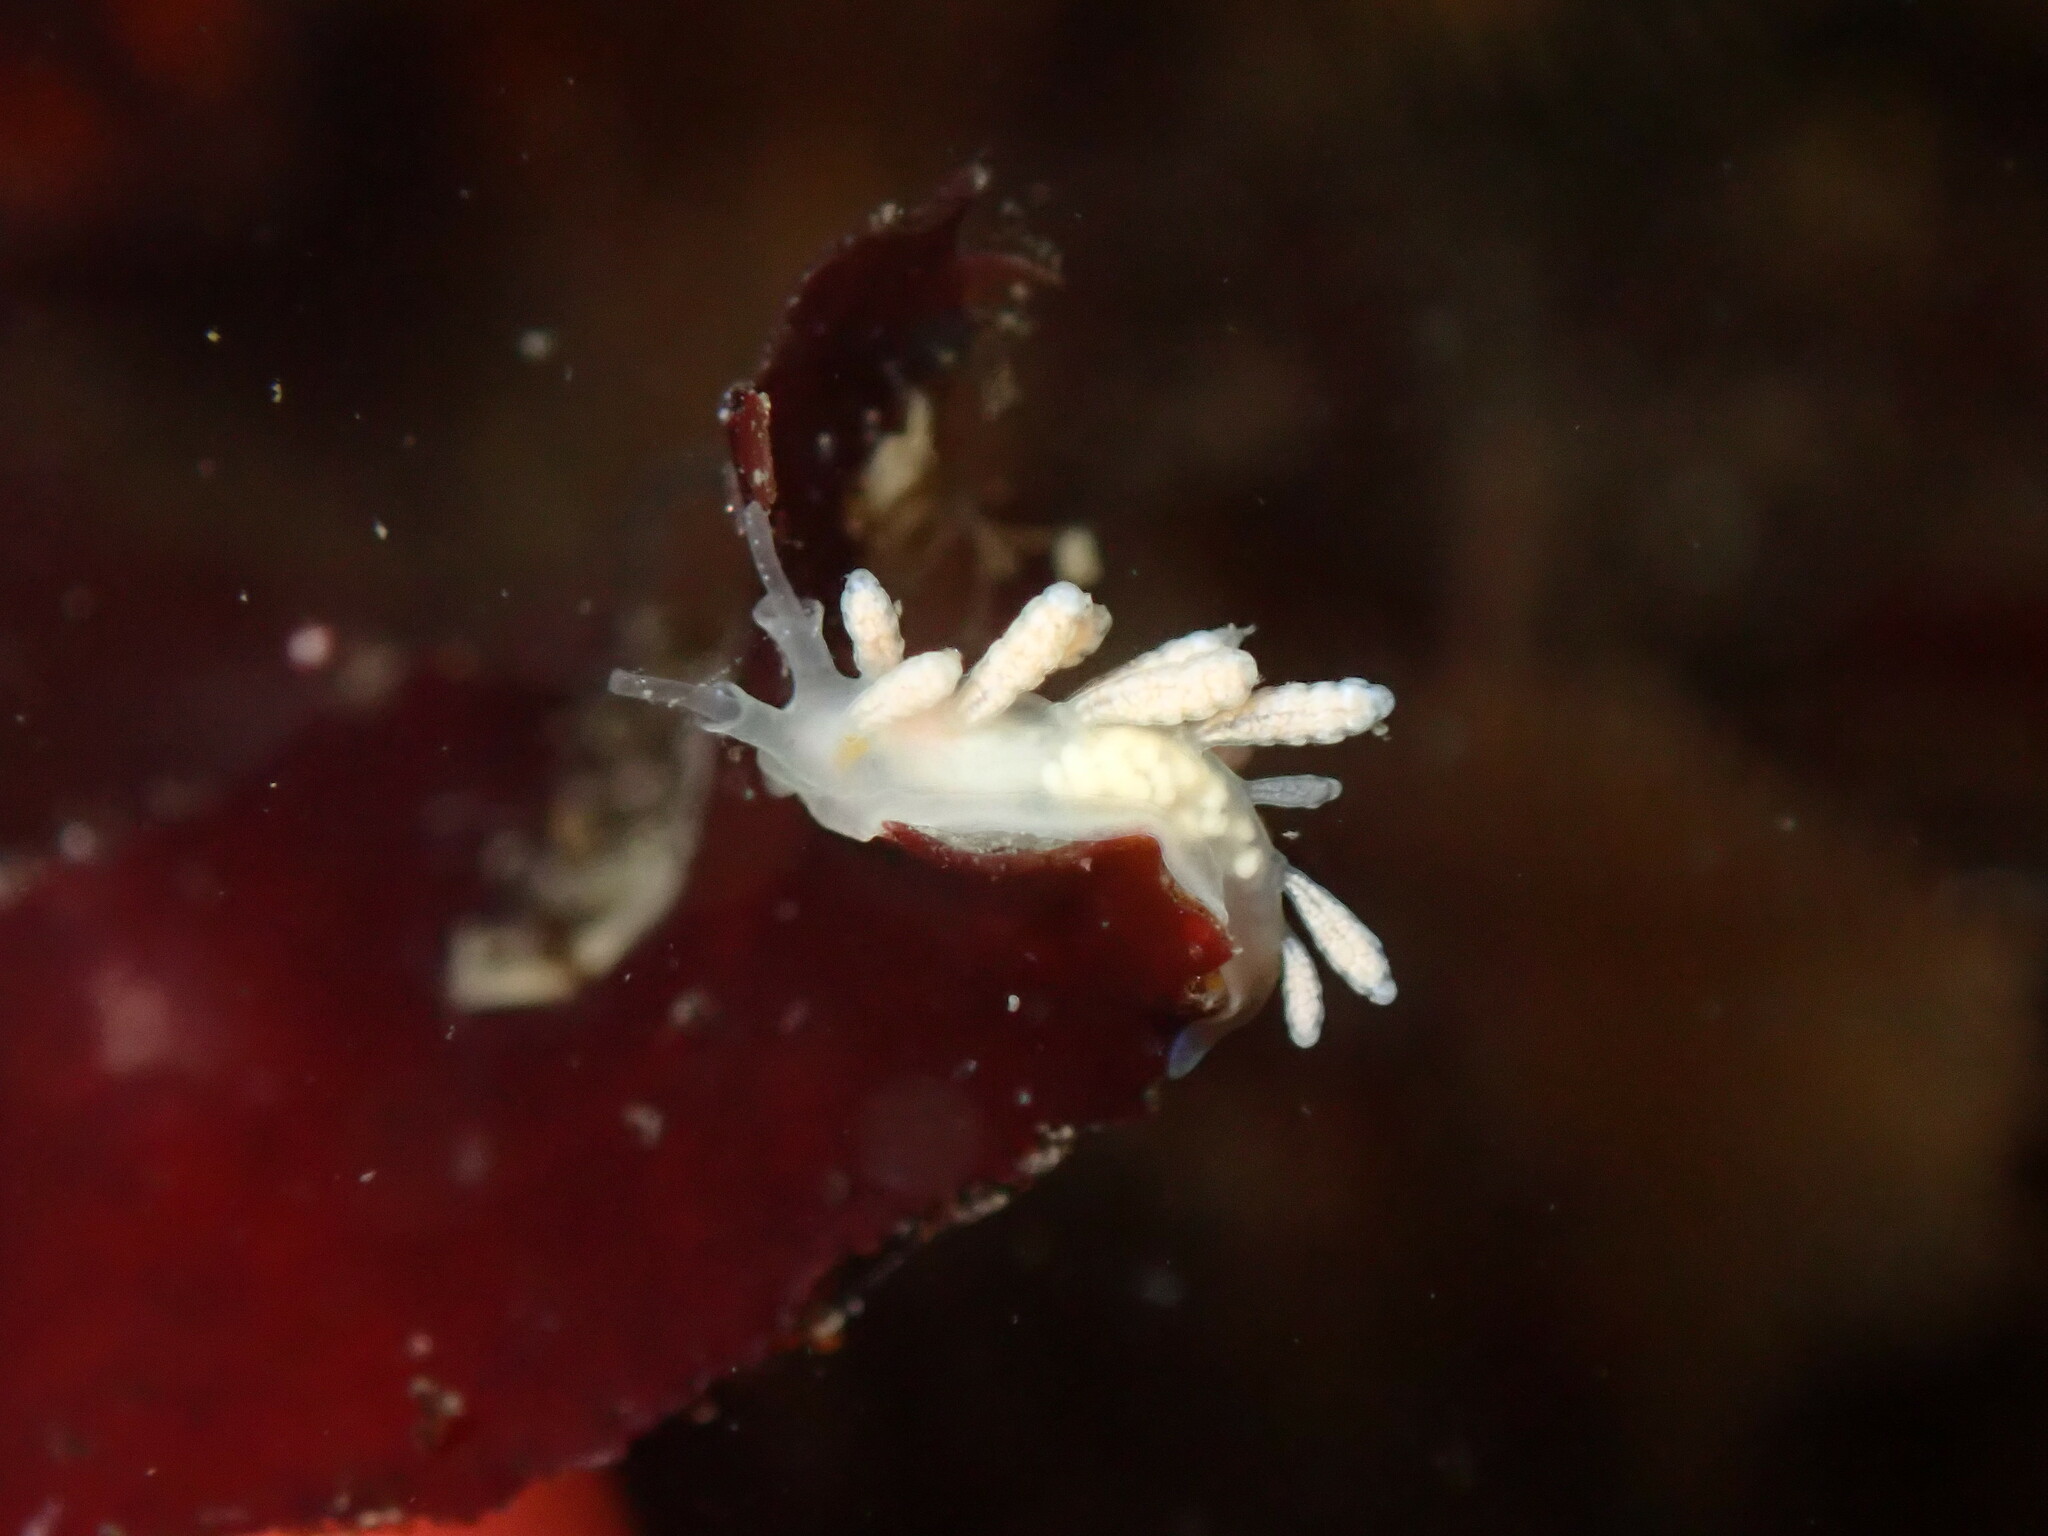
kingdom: Animalia
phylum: Mollusca
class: Gastropoda
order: Nudibranchia
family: Dotidae
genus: Doto
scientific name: Doto amyra
